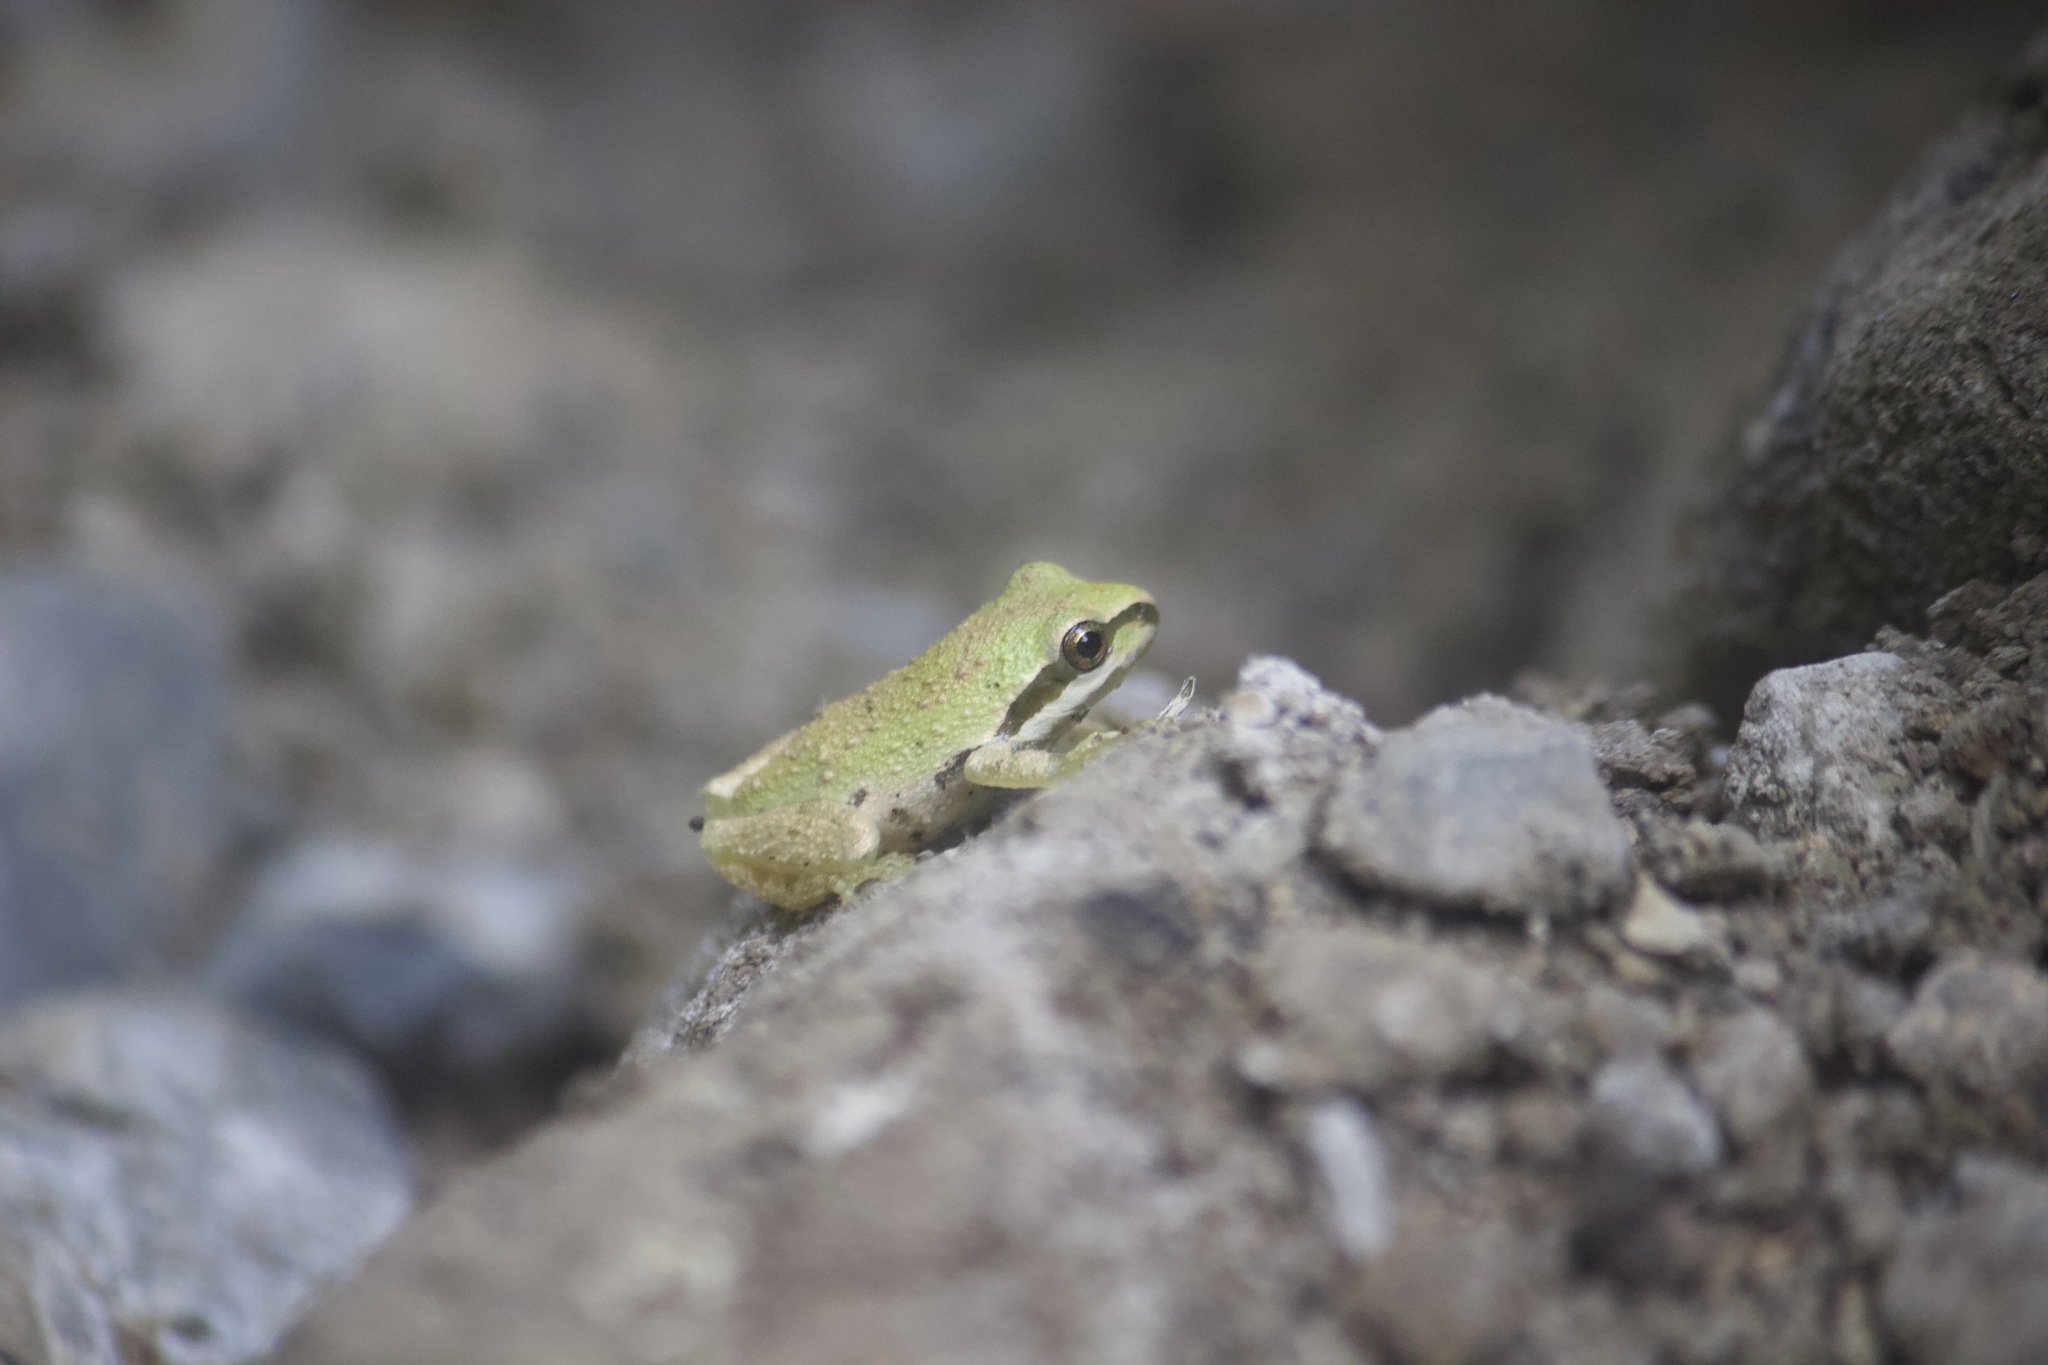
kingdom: Animalia
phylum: Chordata
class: Amphibia
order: Anura
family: Hylidae
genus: Pseudacris
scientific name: Pseudacris regilla
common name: Pacific chorus frog
